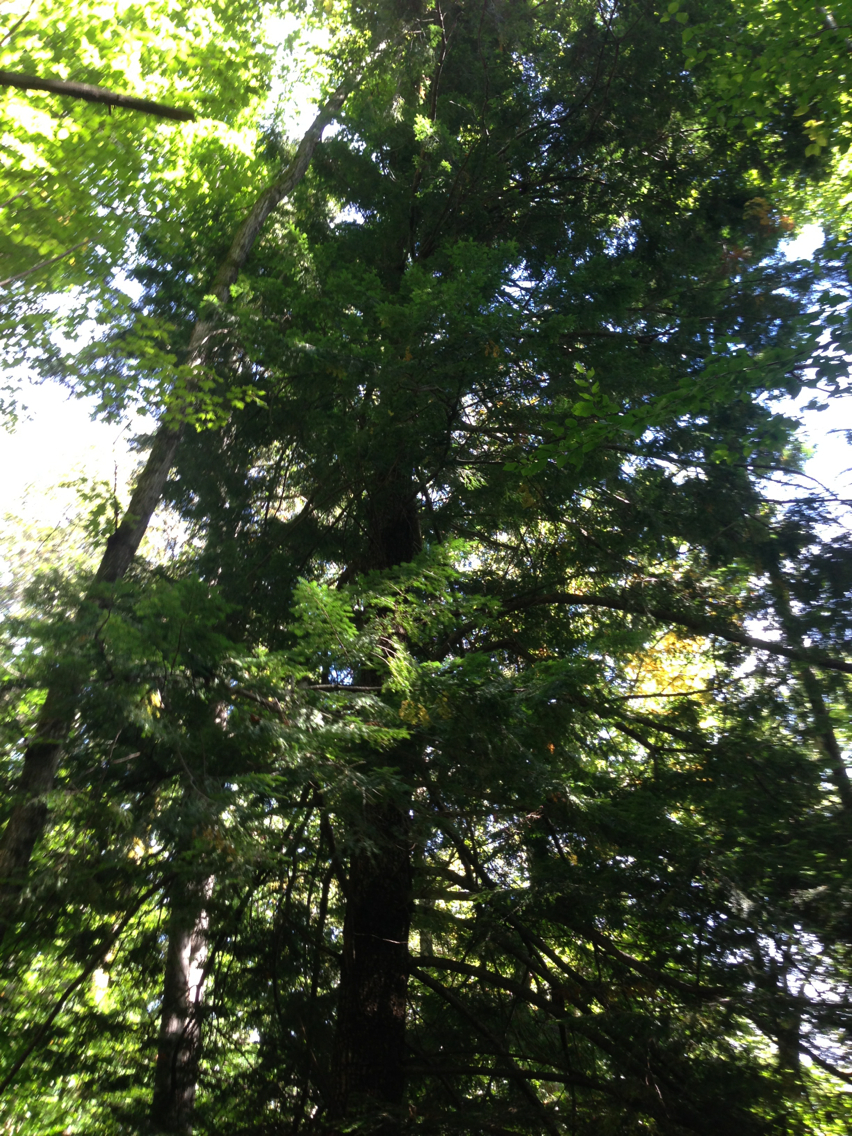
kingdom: Plantae
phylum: Tracheophyta
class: Pinopsida
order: Pinales
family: Pinaceae
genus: Tsuga
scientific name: Tsuga canadensis
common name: Eastern hemlock
